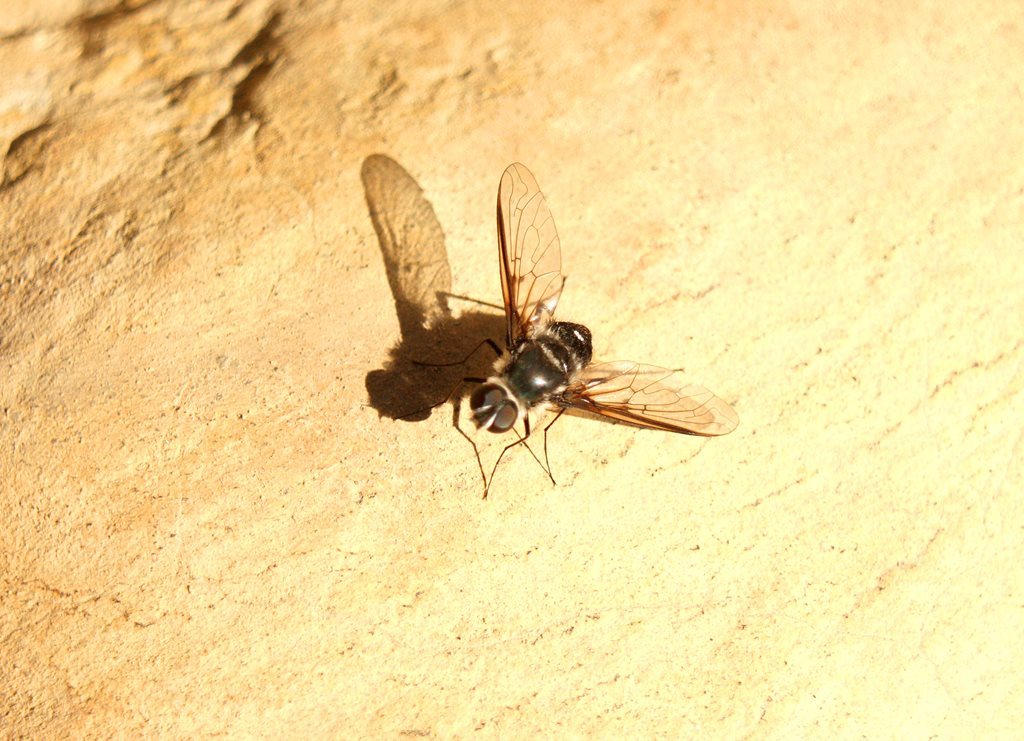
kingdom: Animalia
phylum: Arthropoda
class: Insecta
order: Diptera
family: Bombyliidae
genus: Thraxan
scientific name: Thraxan
